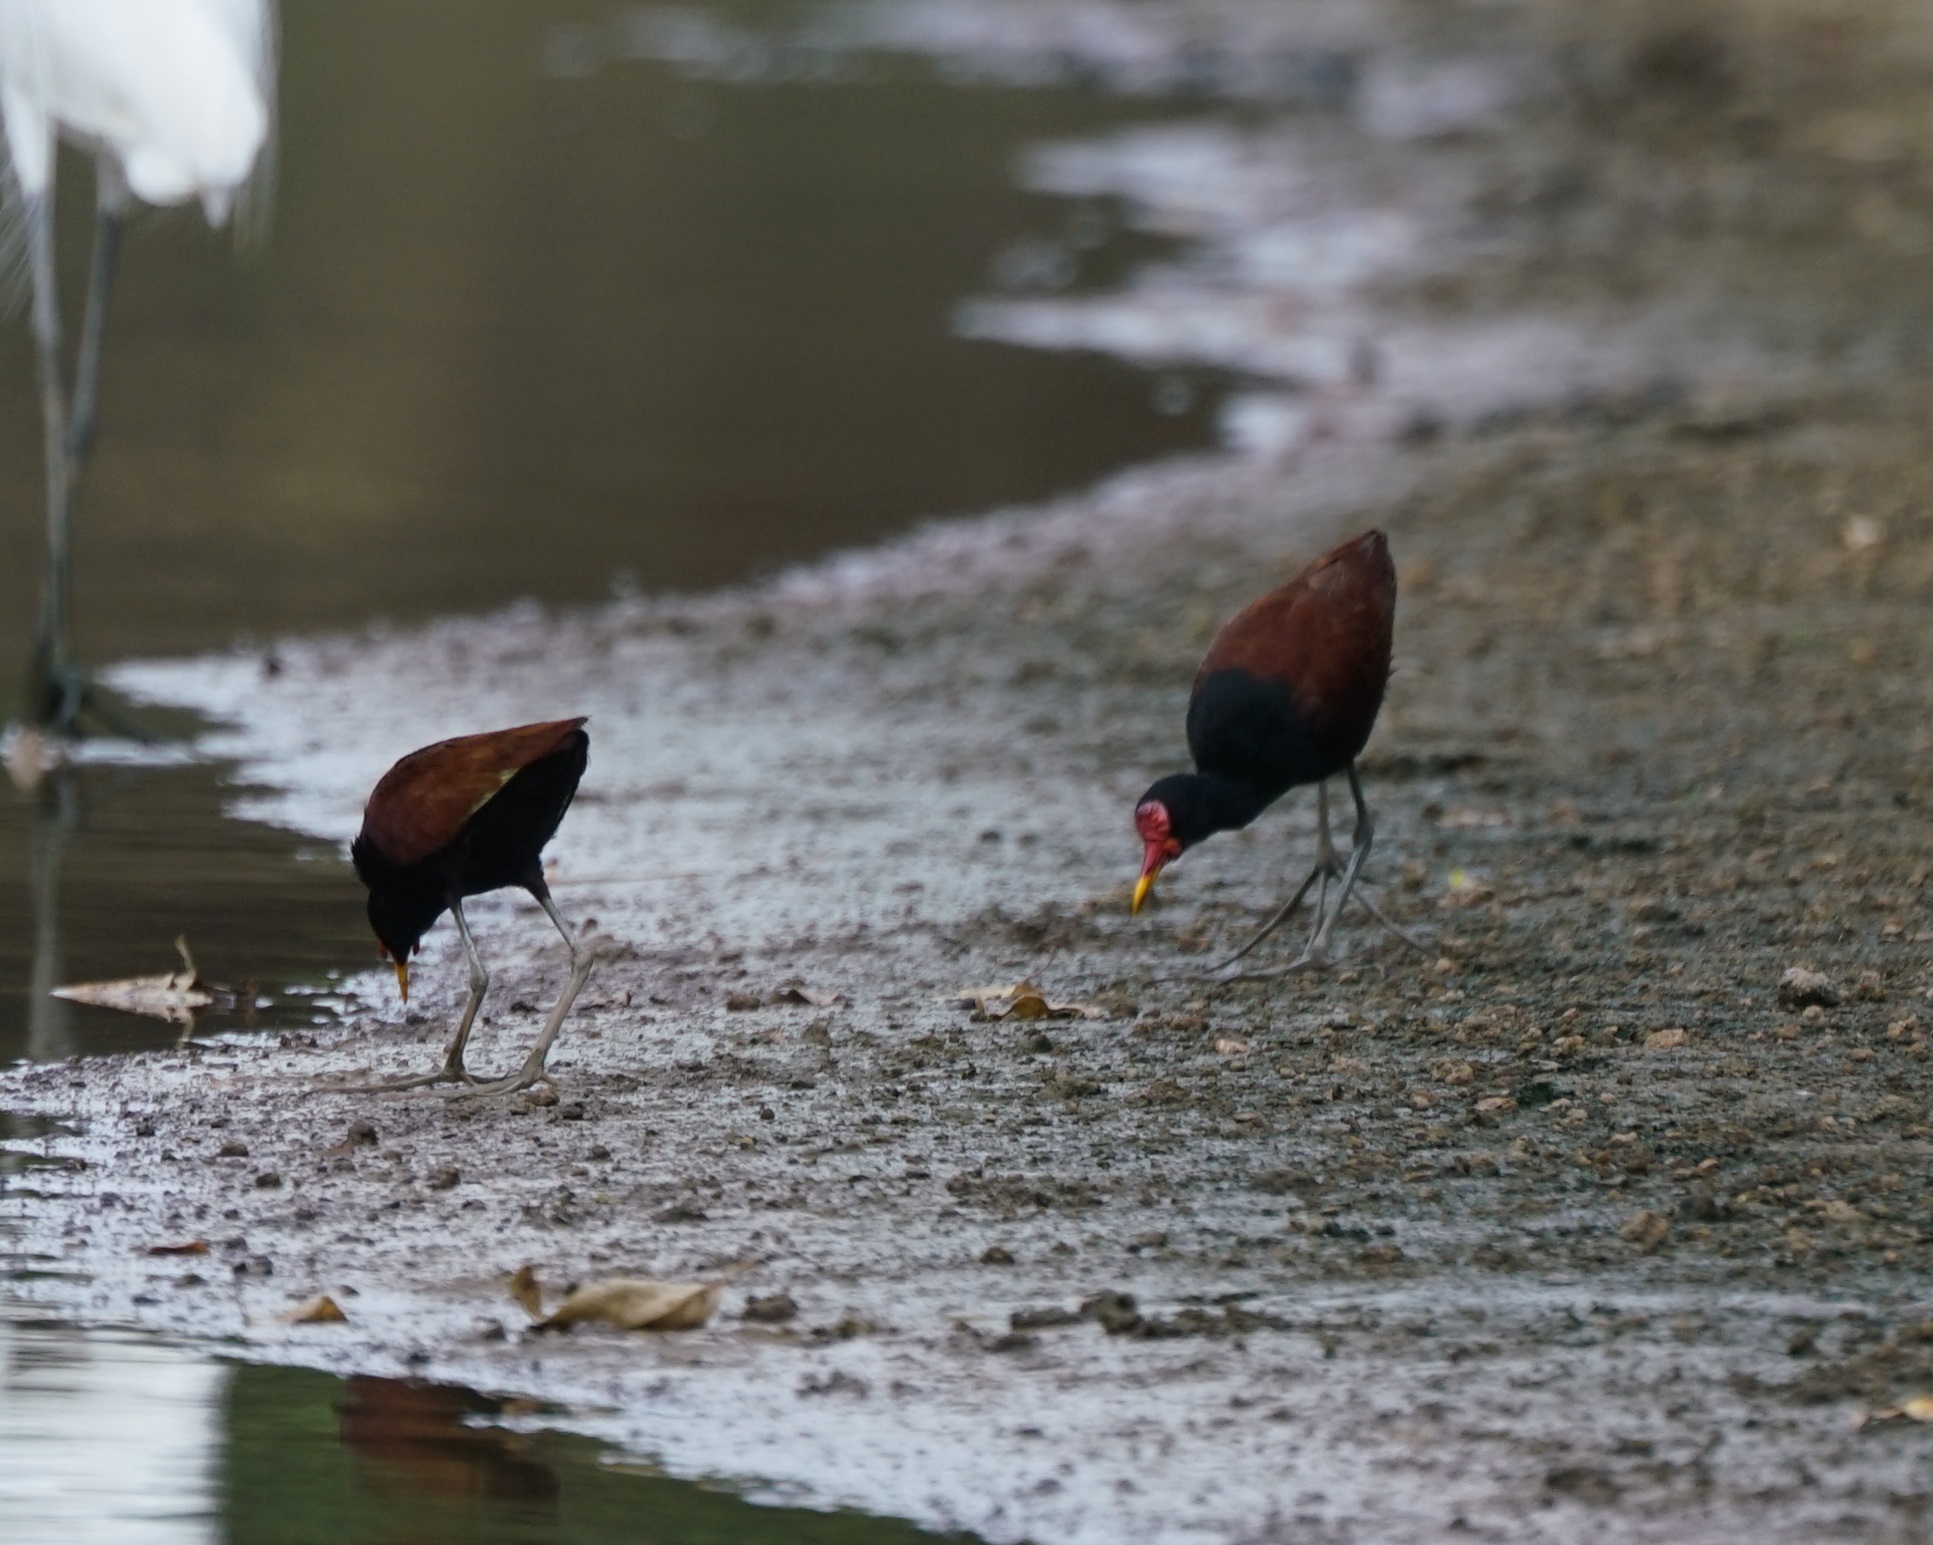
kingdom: Animalia
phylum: Chordata
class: Aves
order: Charadriiformes
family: Jacanidae
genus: Jacana
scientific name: Jacana jacana
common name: Wattled jacana
